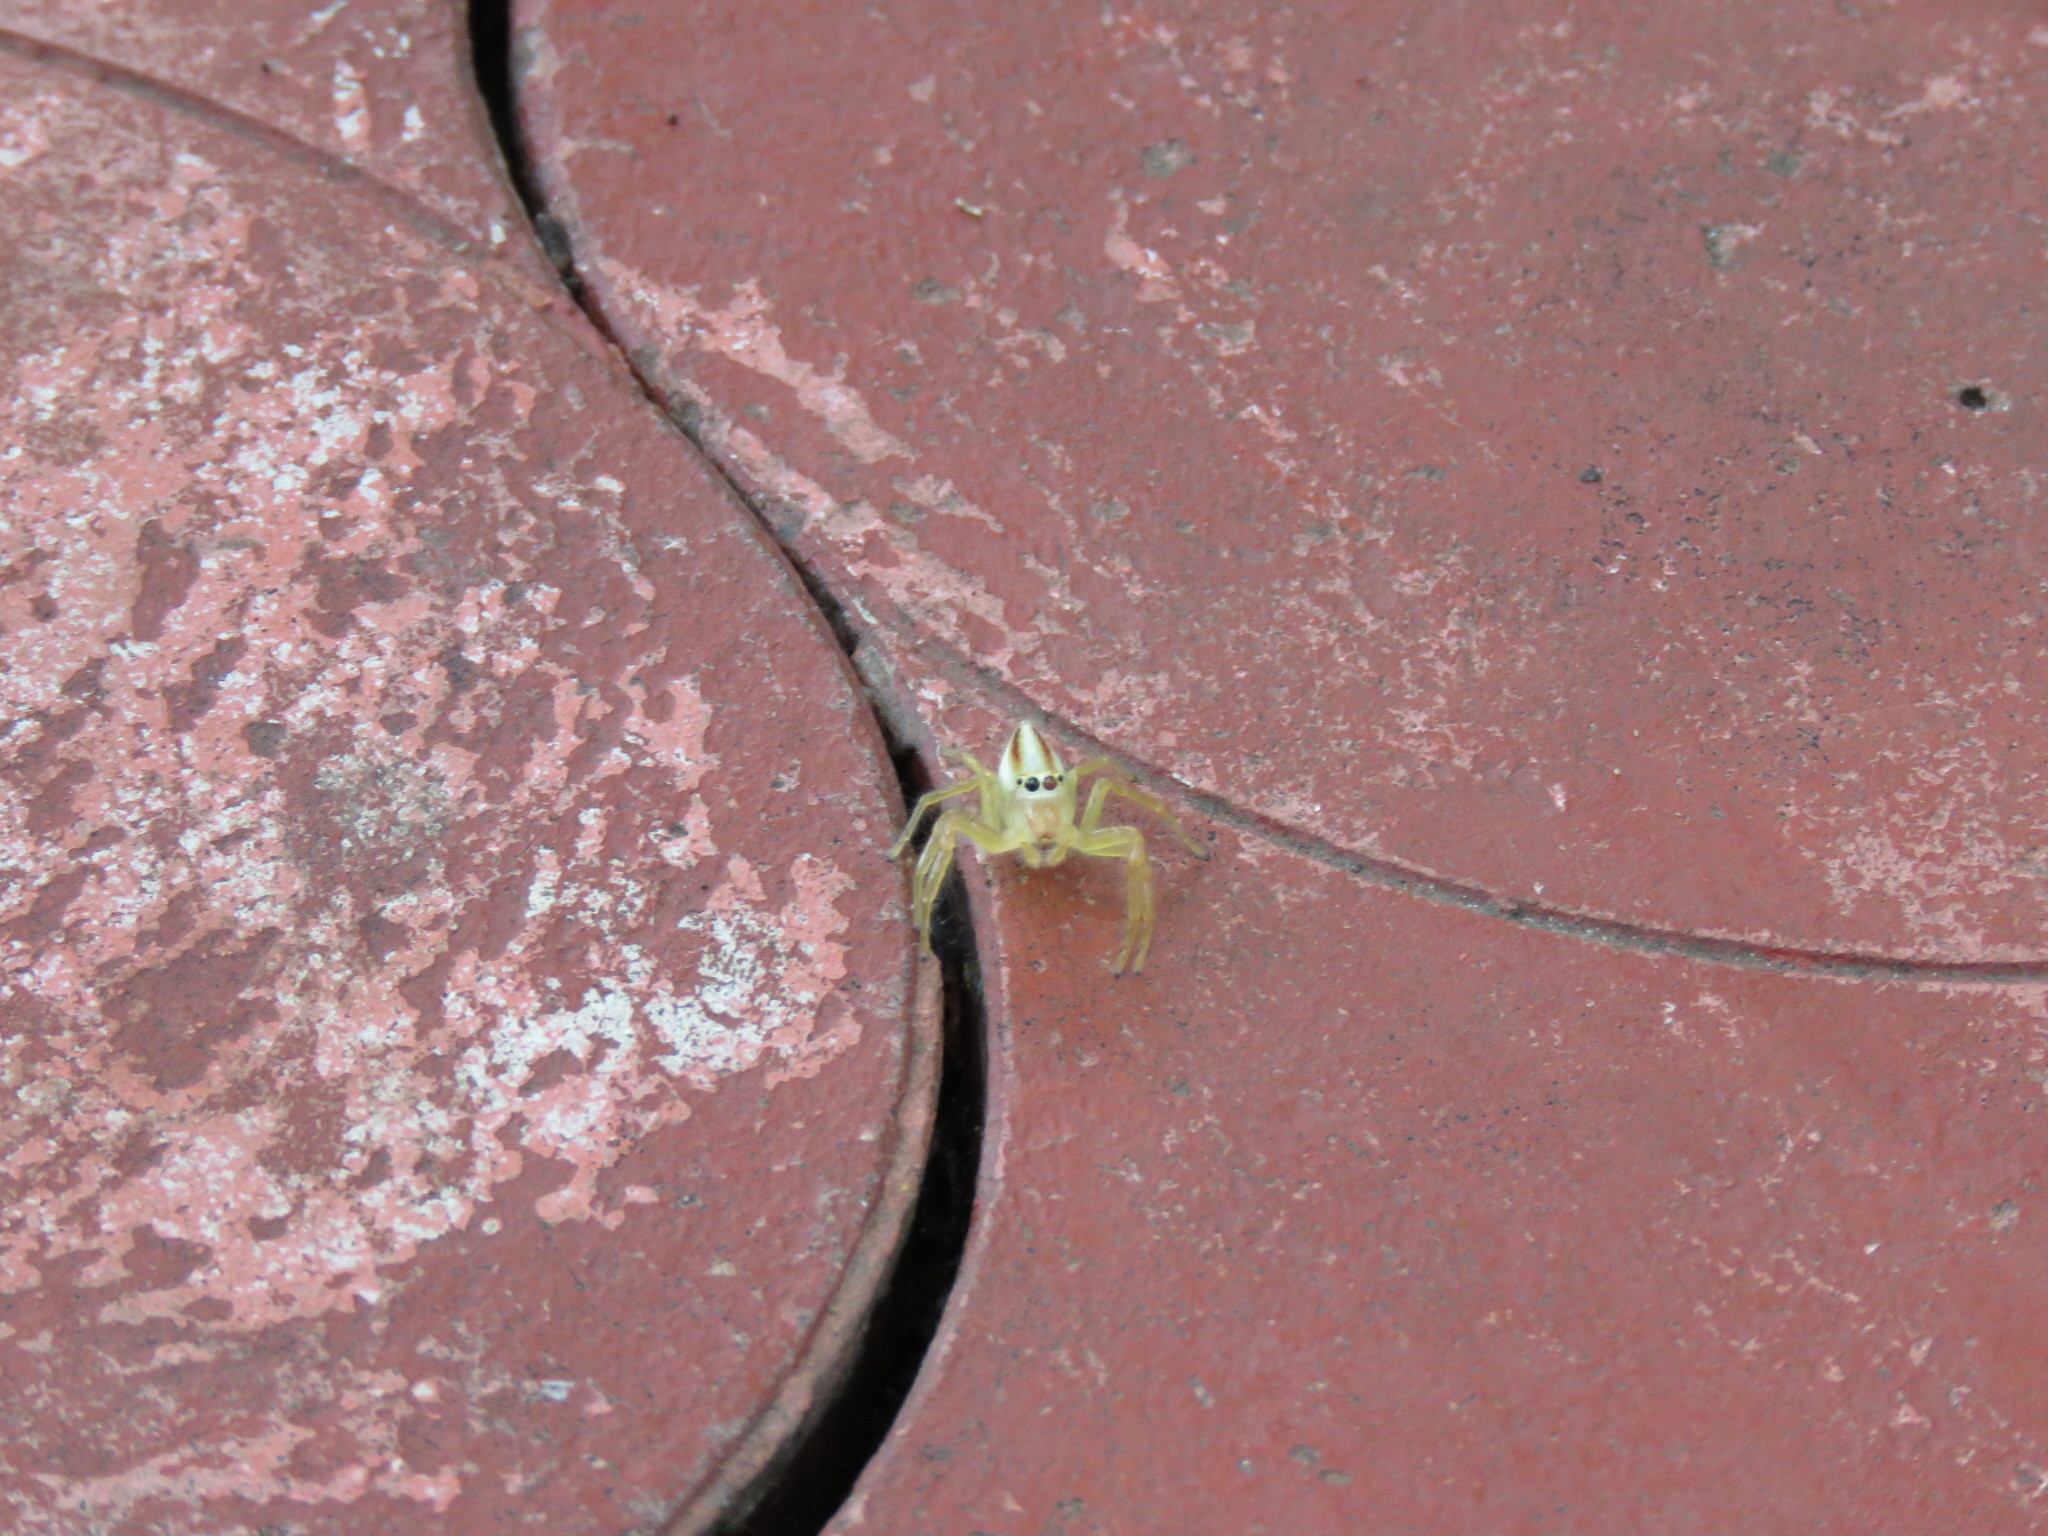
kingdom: Animalia
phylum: Arthropoda
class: Arachnida
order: Araneae
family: Salticidae
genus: Telamonia
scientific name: Telamonia dimidiata
